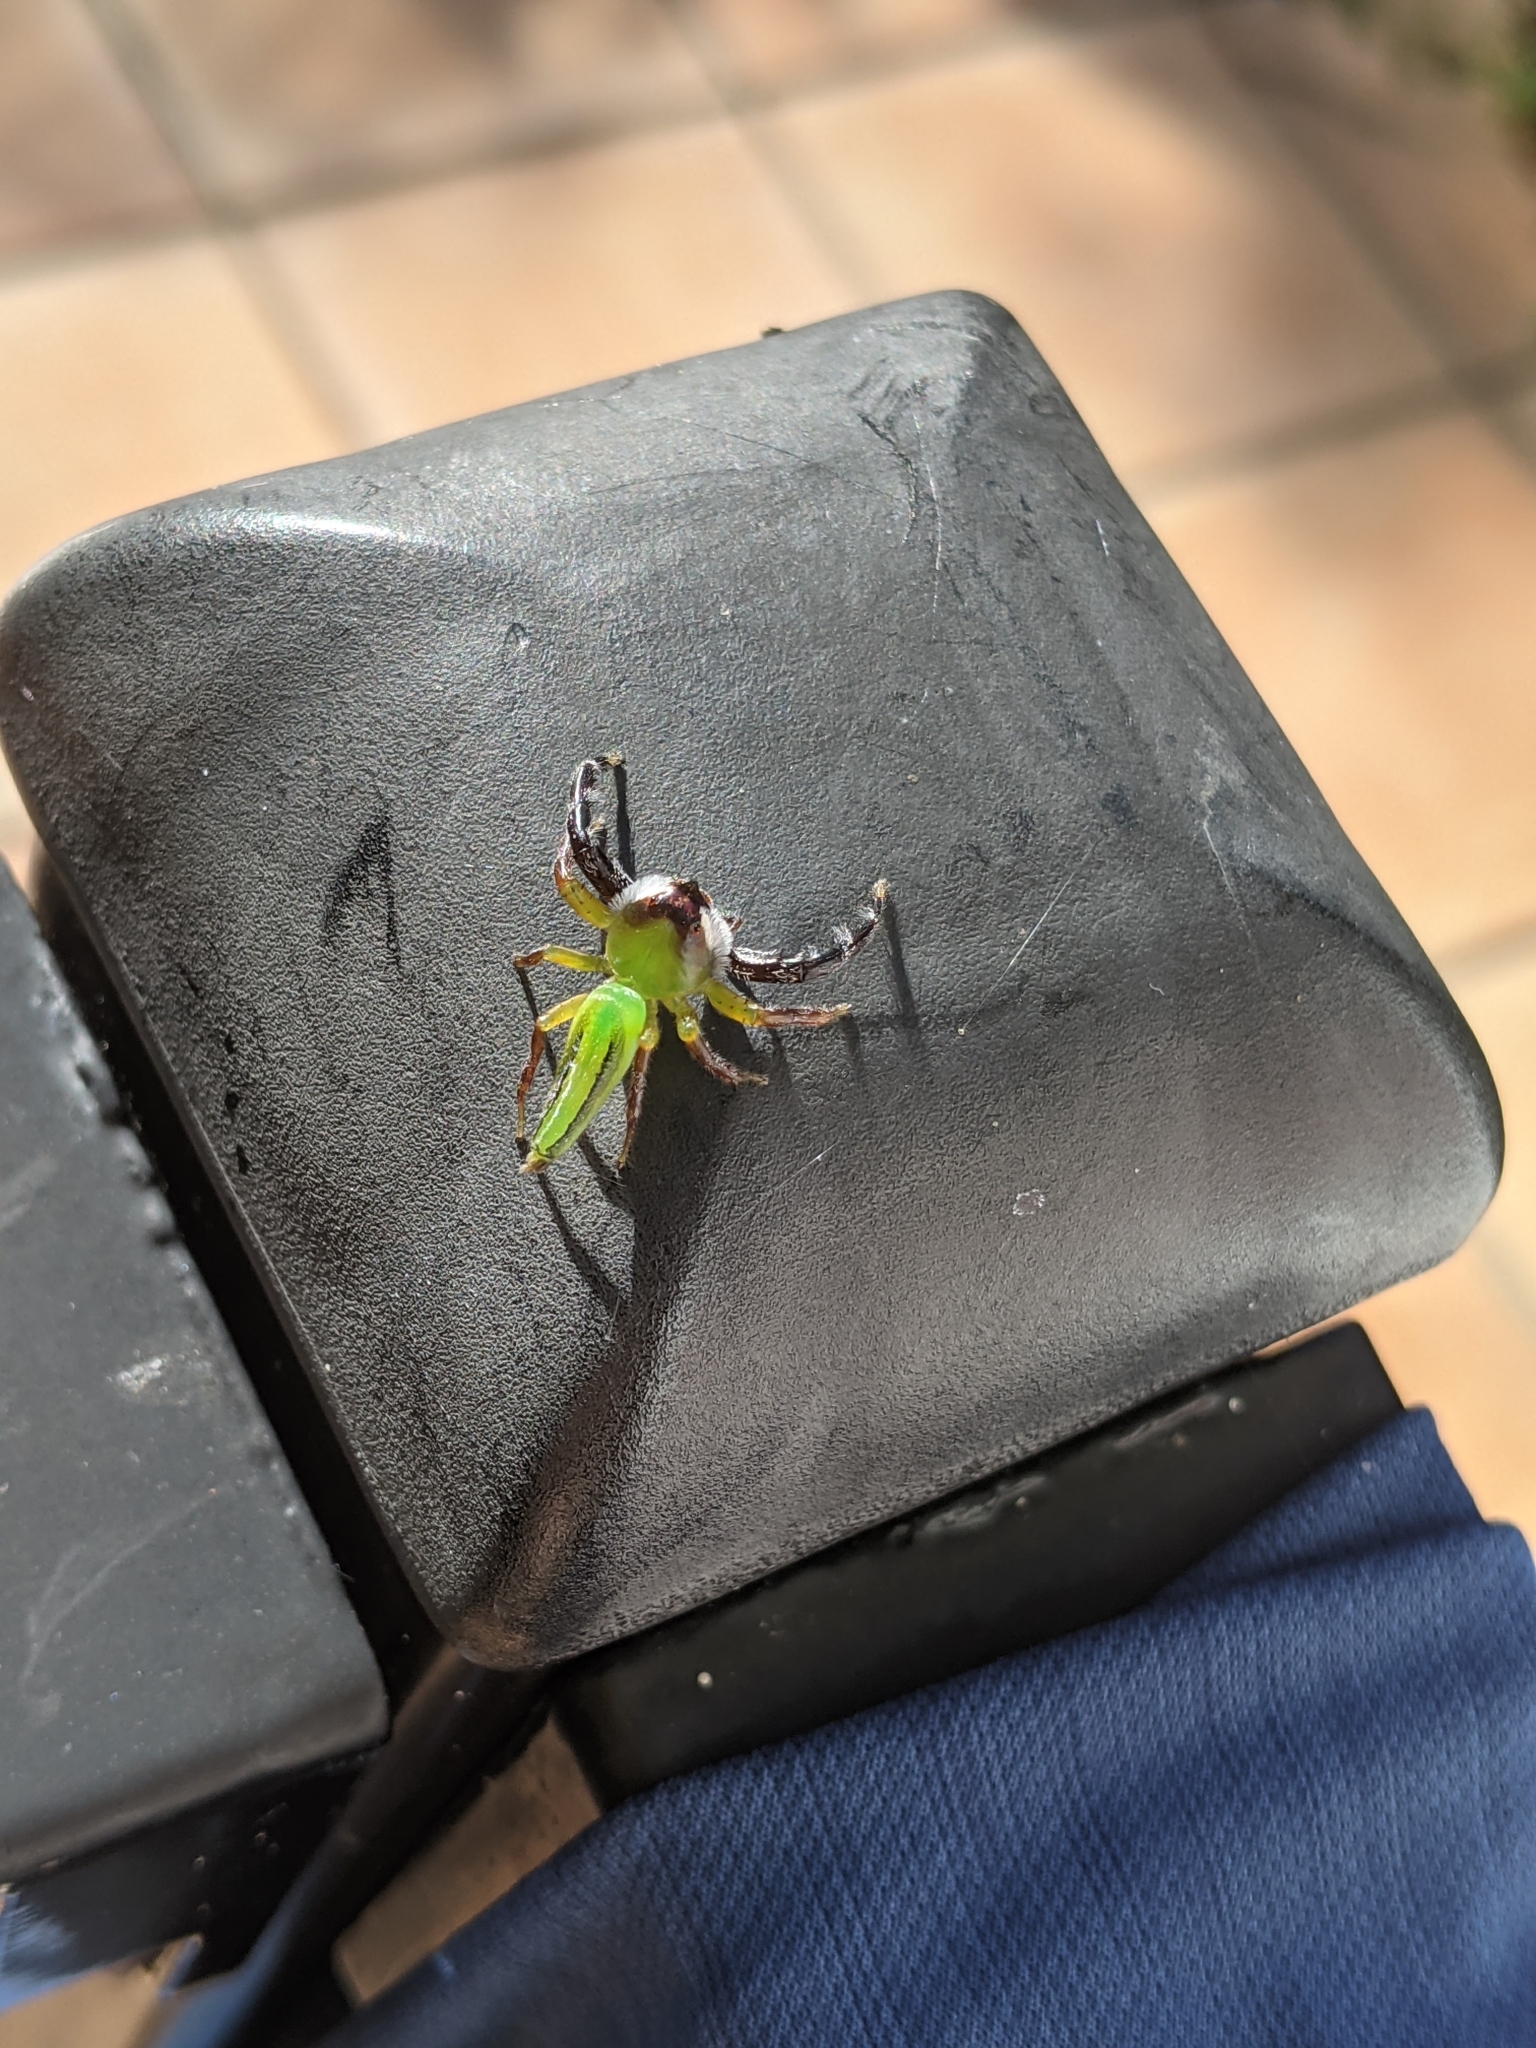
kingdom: Animalia
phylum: Arthropoda
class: Arachnida
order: Araneae
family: Salticidae
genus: Mopsus
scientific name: Mopsus mormon
